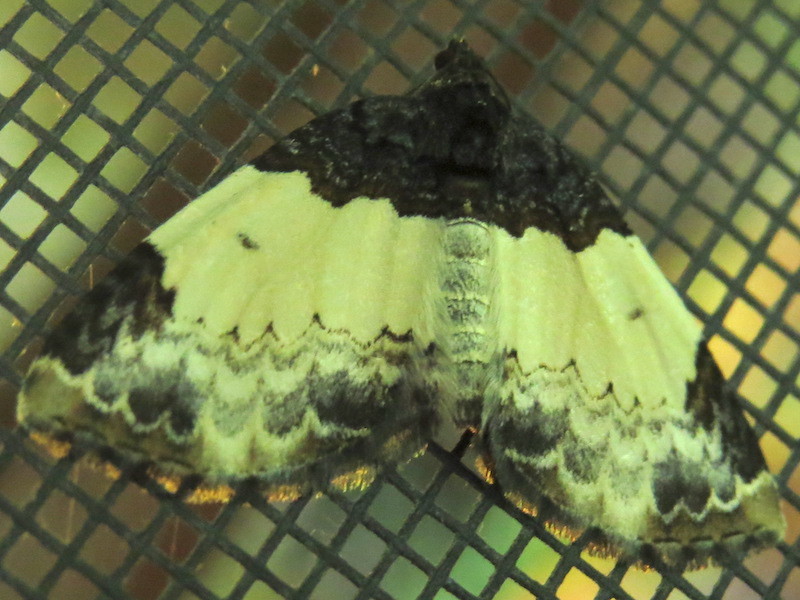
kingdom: Animalia
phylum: Arthropoda
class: Insecta
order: Lepidoptera
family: Geometridae
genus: Mesoleuca
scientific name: Mesoleuca ruficillata
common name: White-ribboned carpet moth
